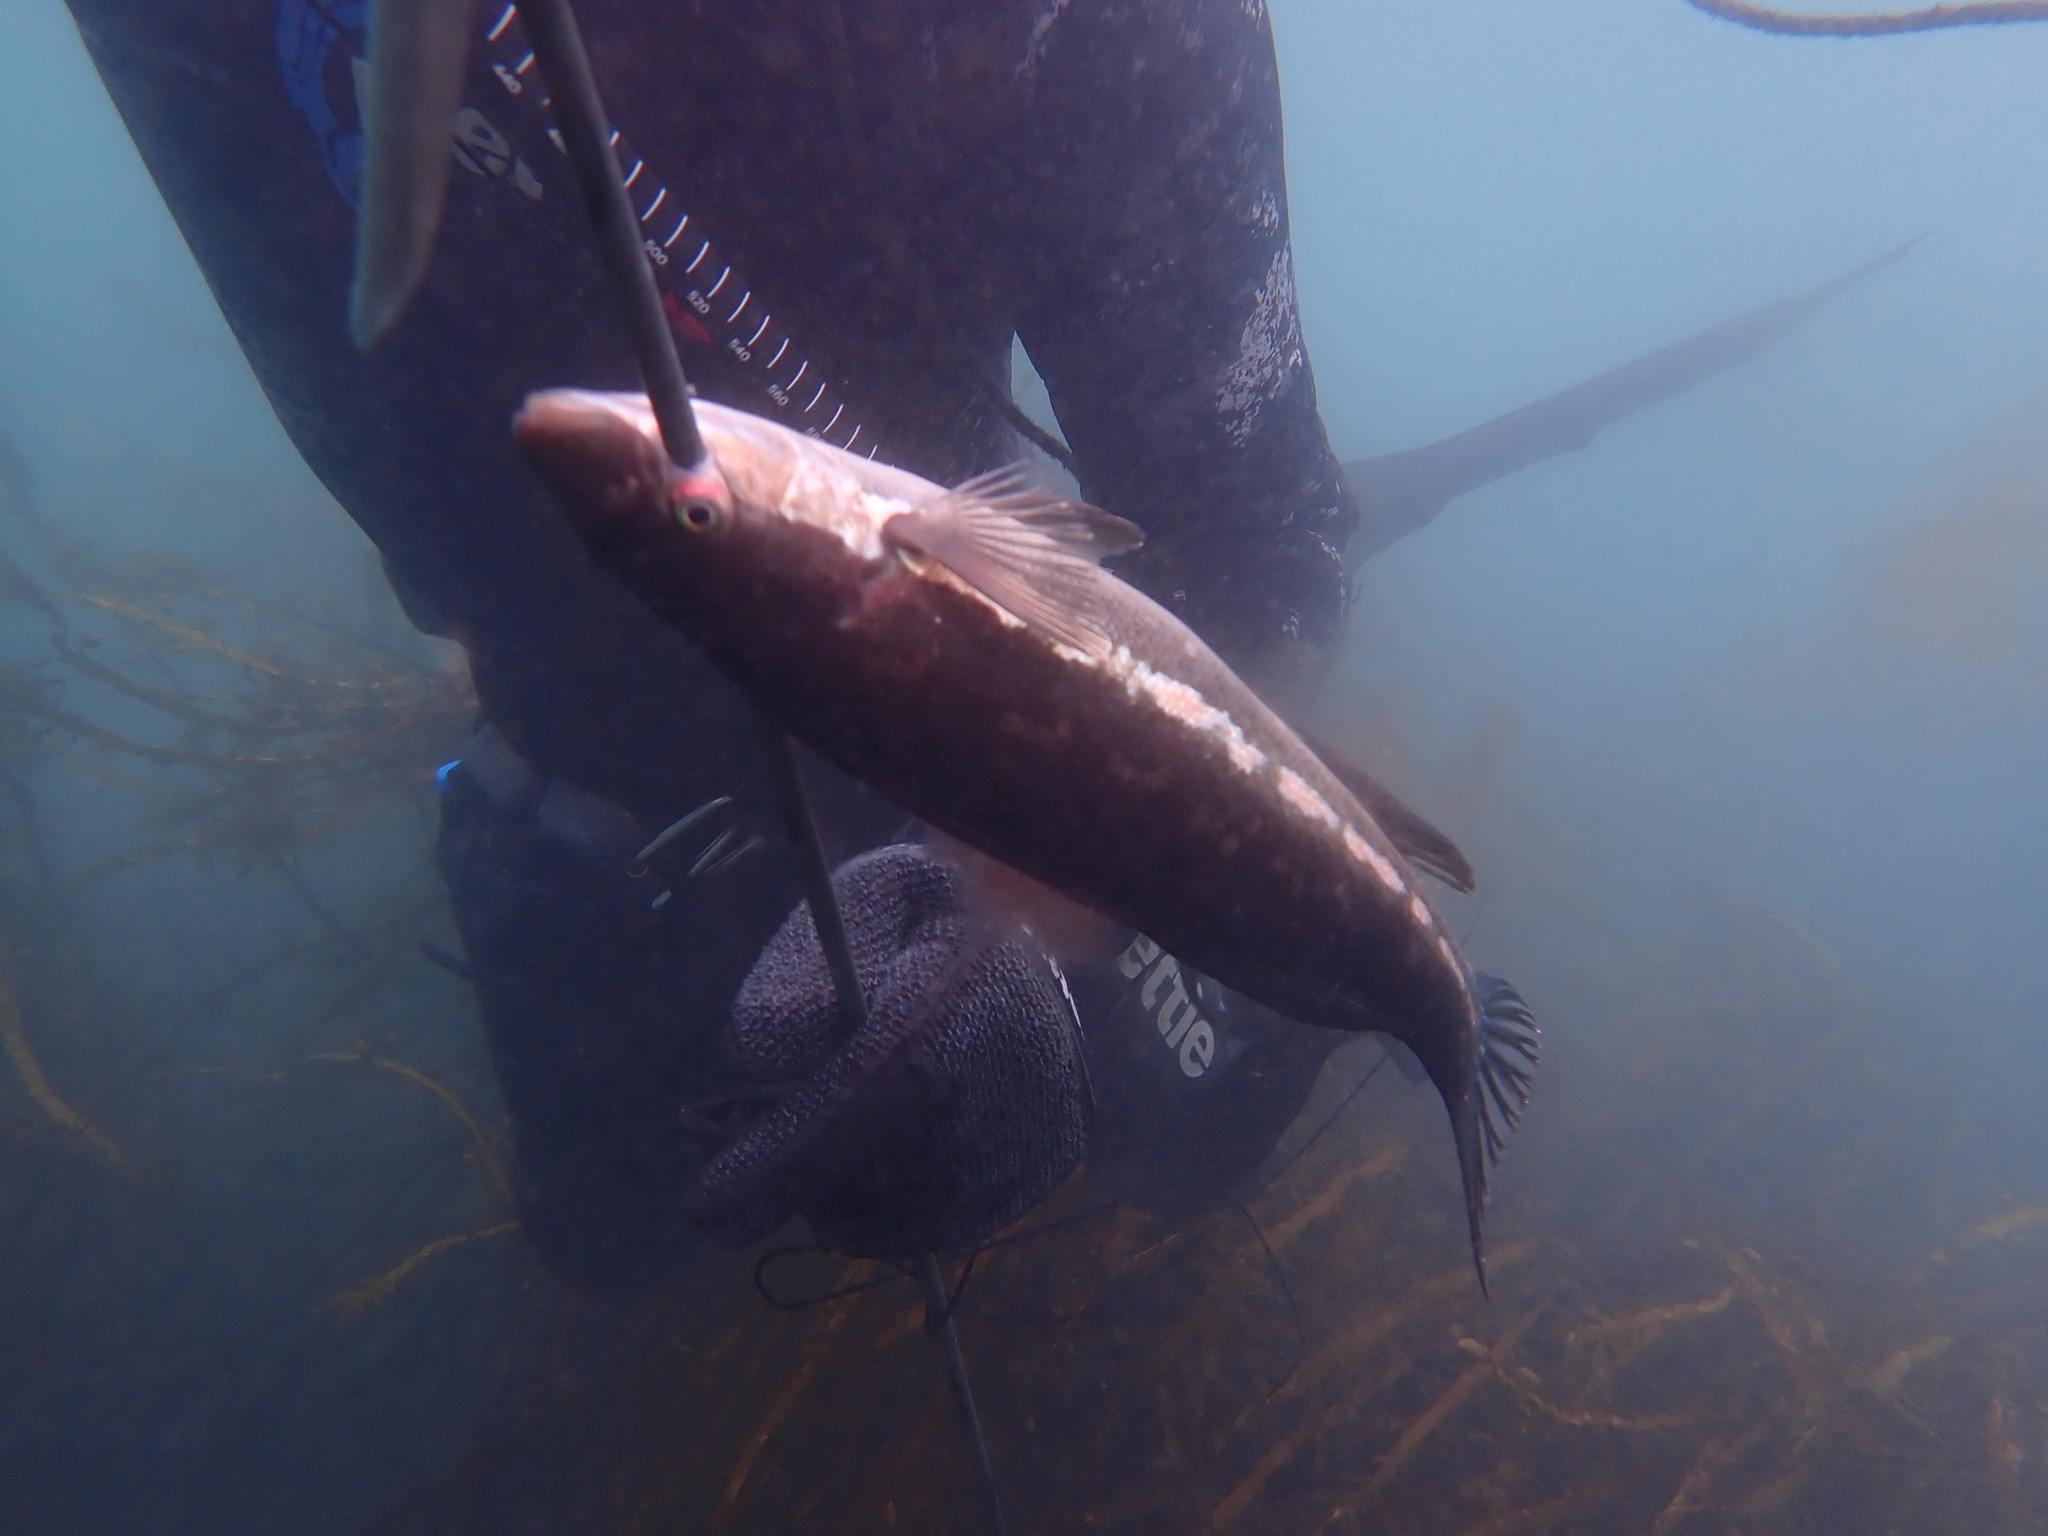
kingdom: Animalia
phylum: Chordata
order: Perciformes
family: Odacidae
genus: Odax
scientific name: Odax pullus
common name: Butterfish
